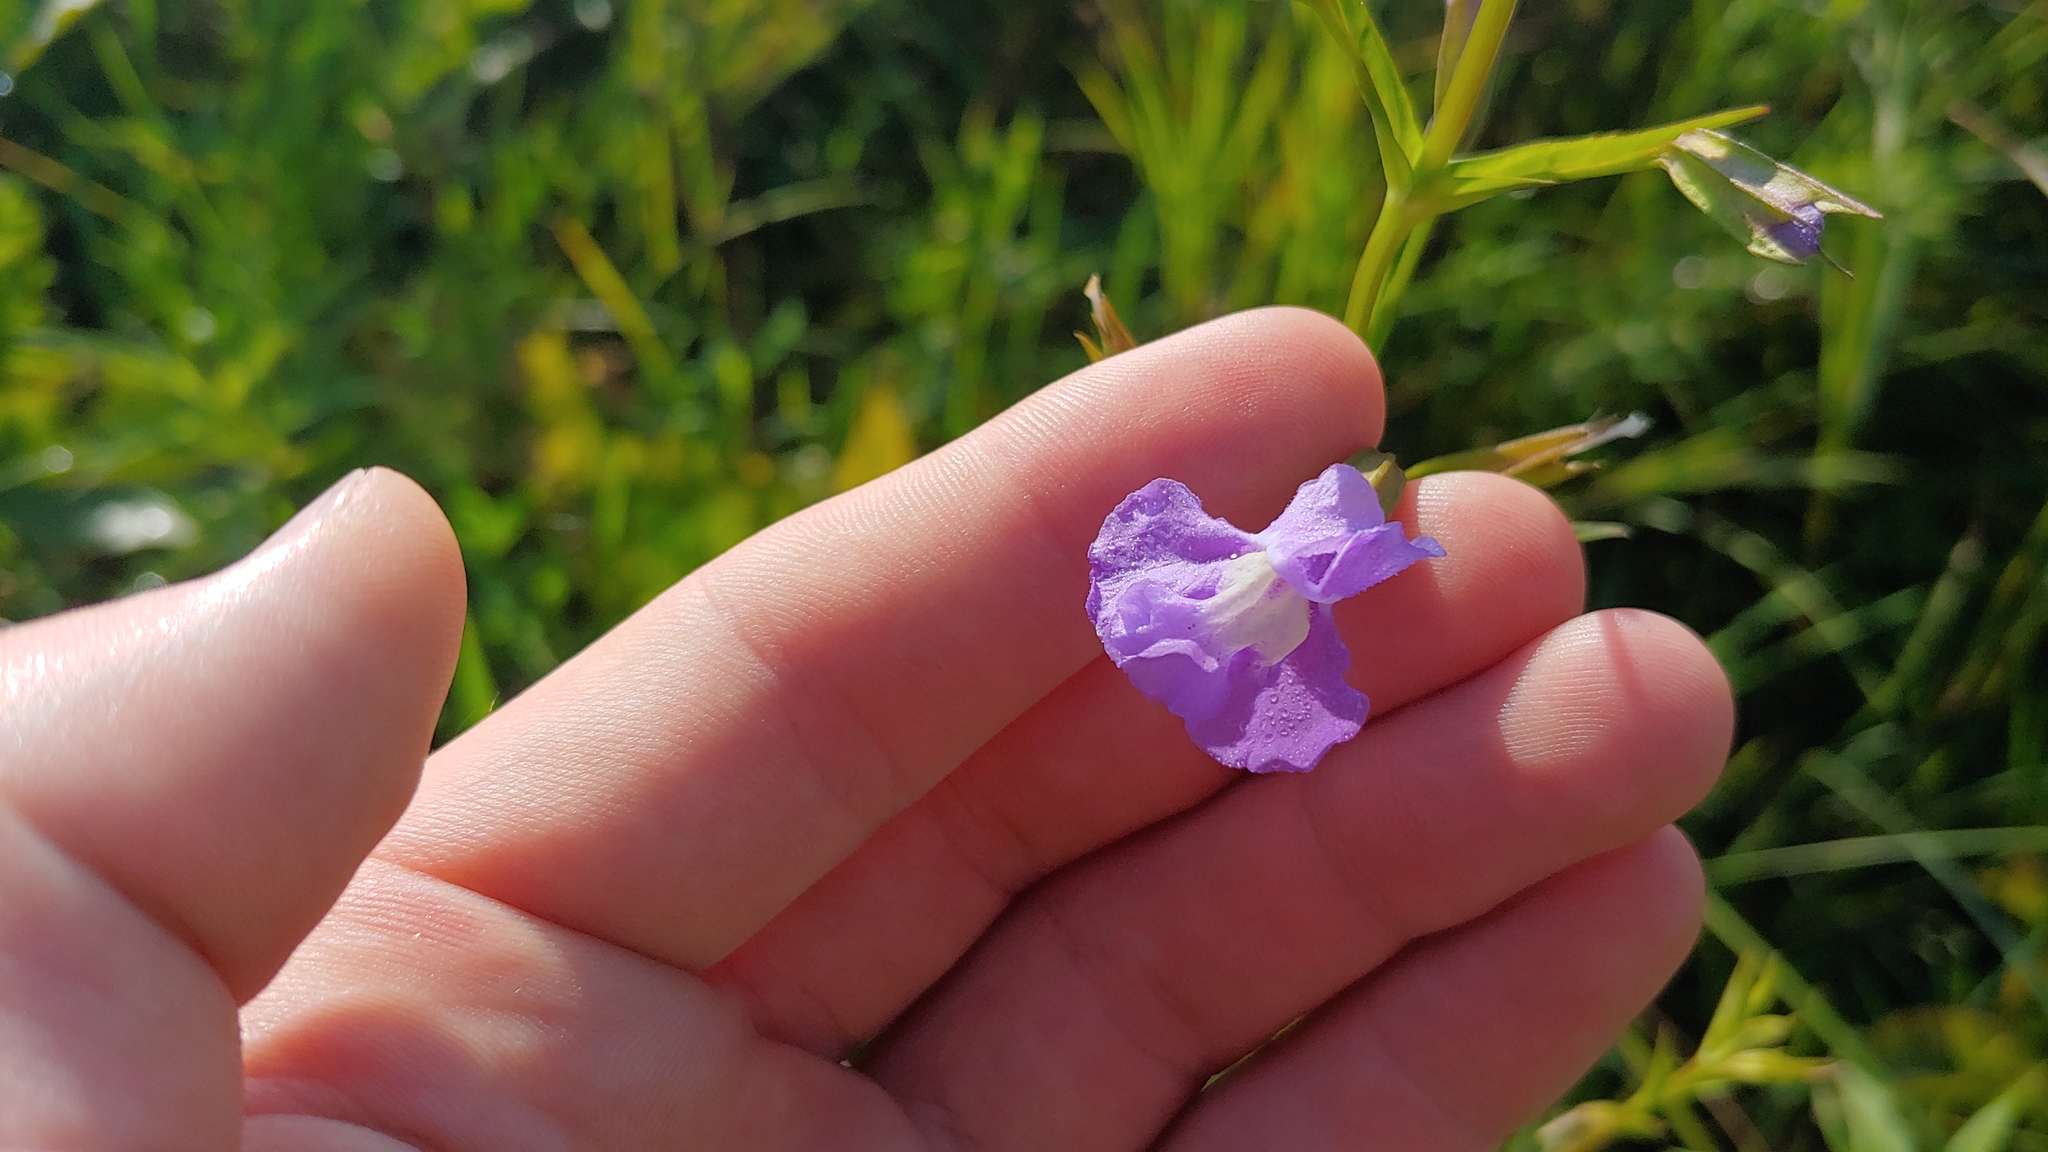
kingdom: Plantae
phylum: Tracheophyta
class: Magnoliopsida
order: Lamiales
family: Phrymaceae
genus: Mimulus
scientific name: Mimulus ringens
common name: Allegheny monkeyflower
